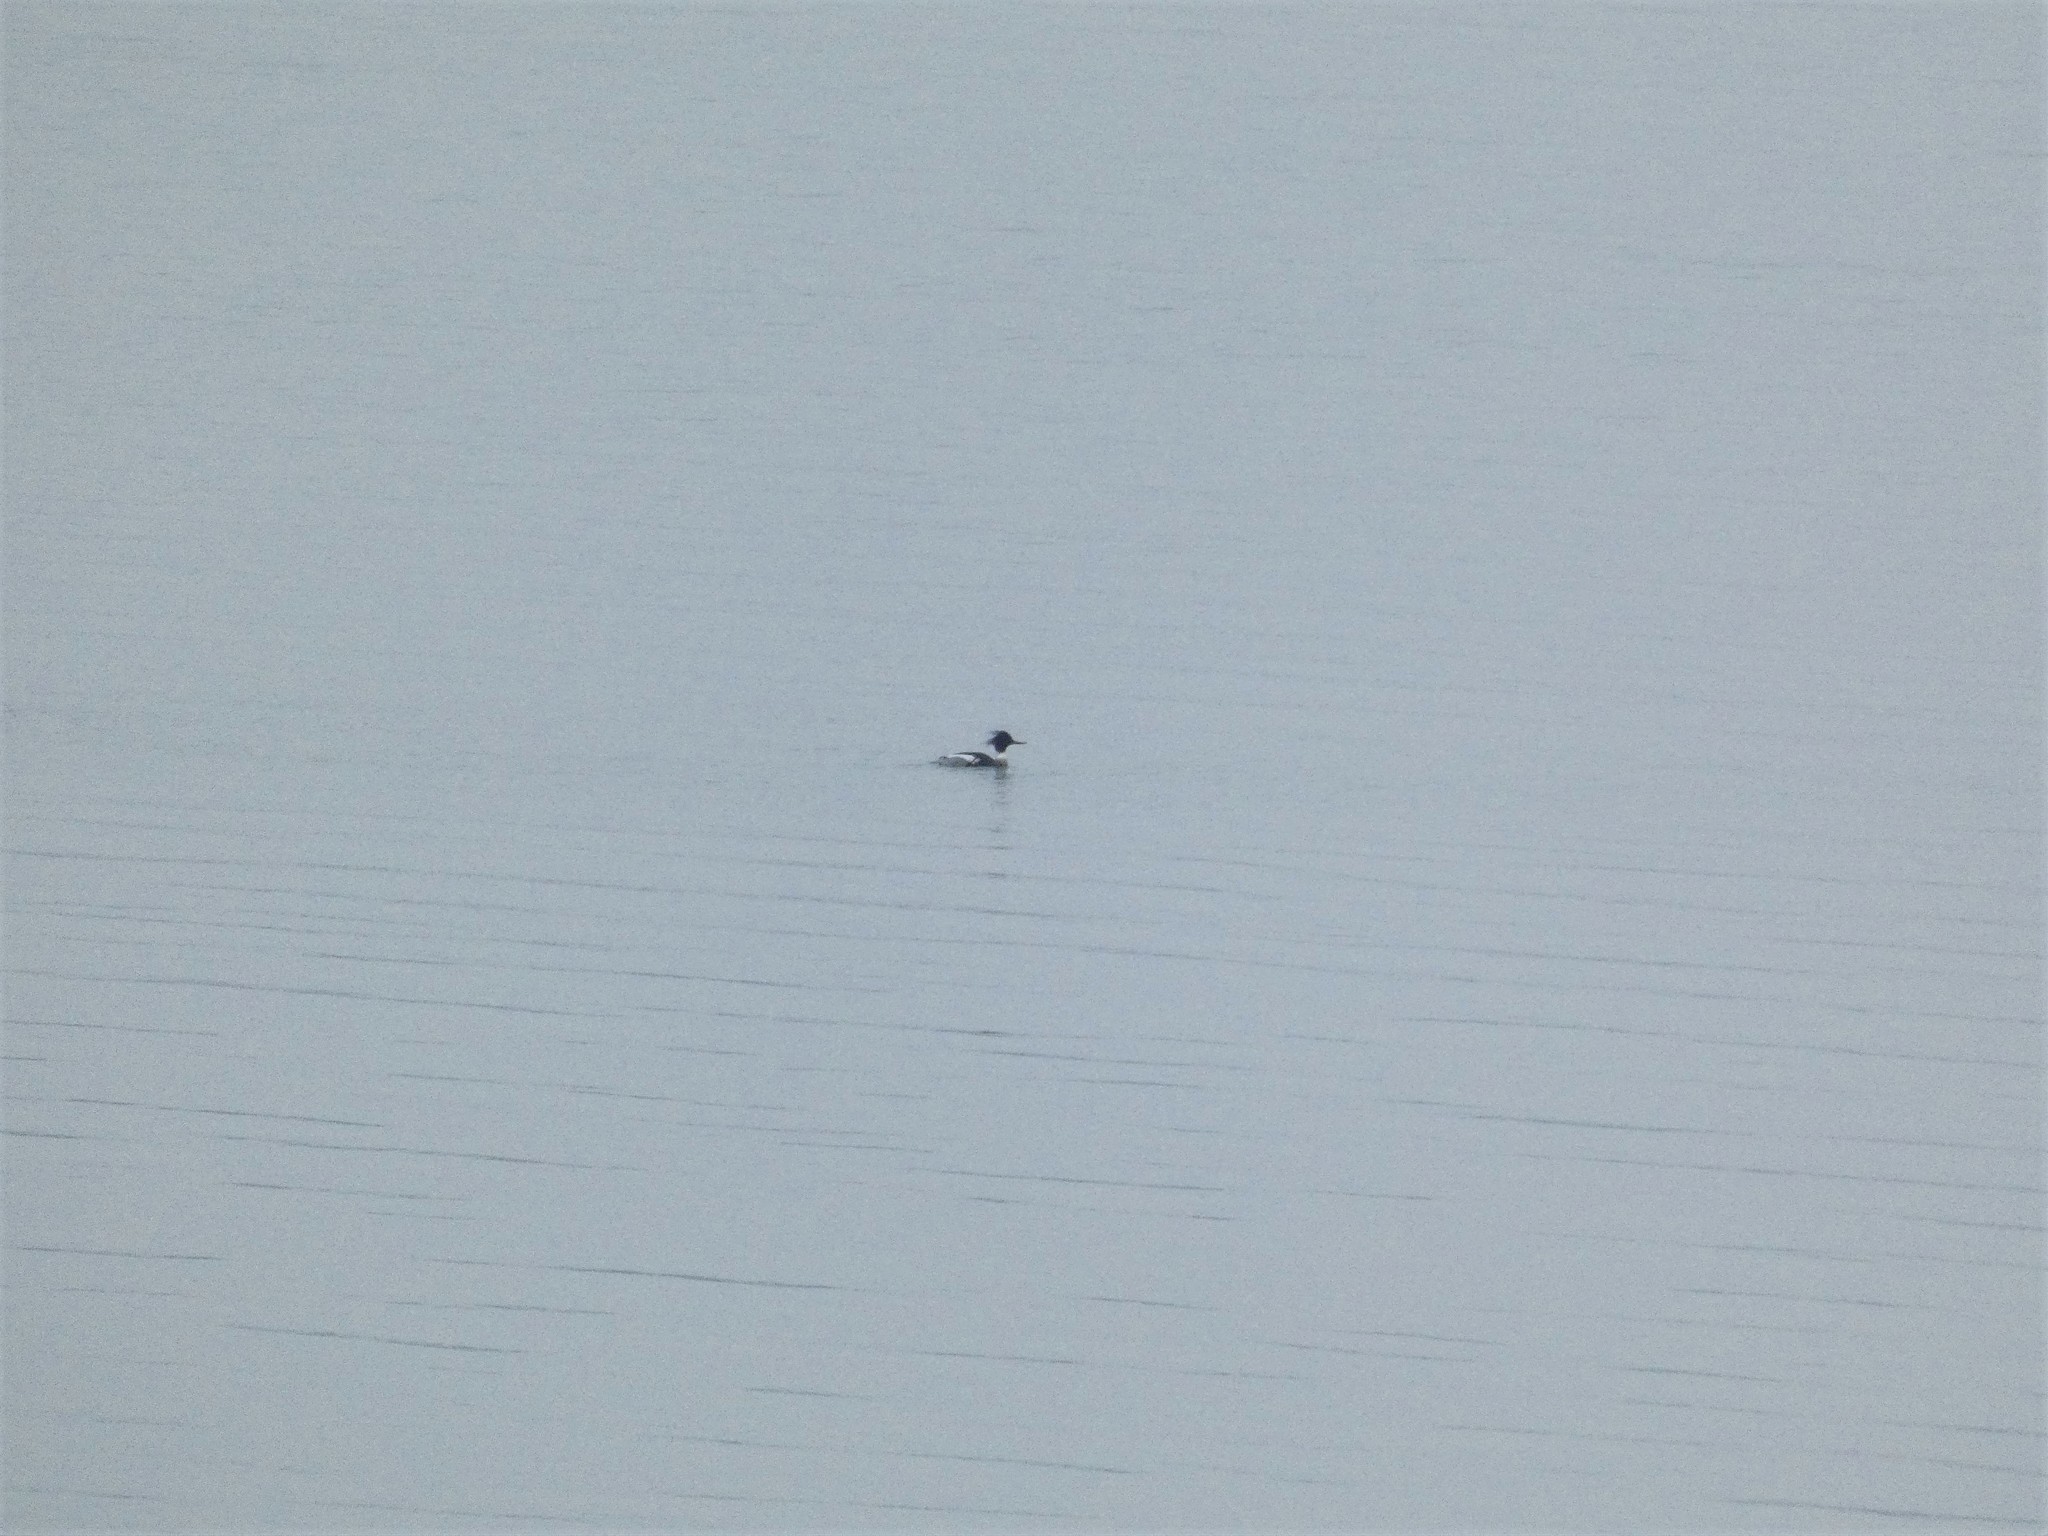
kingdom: Animalia
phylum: Chordata
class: Aves
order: Anseriformes
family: Anatidae
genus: Mergus
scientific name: Mergus serrator
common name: Red-breasted merganser
